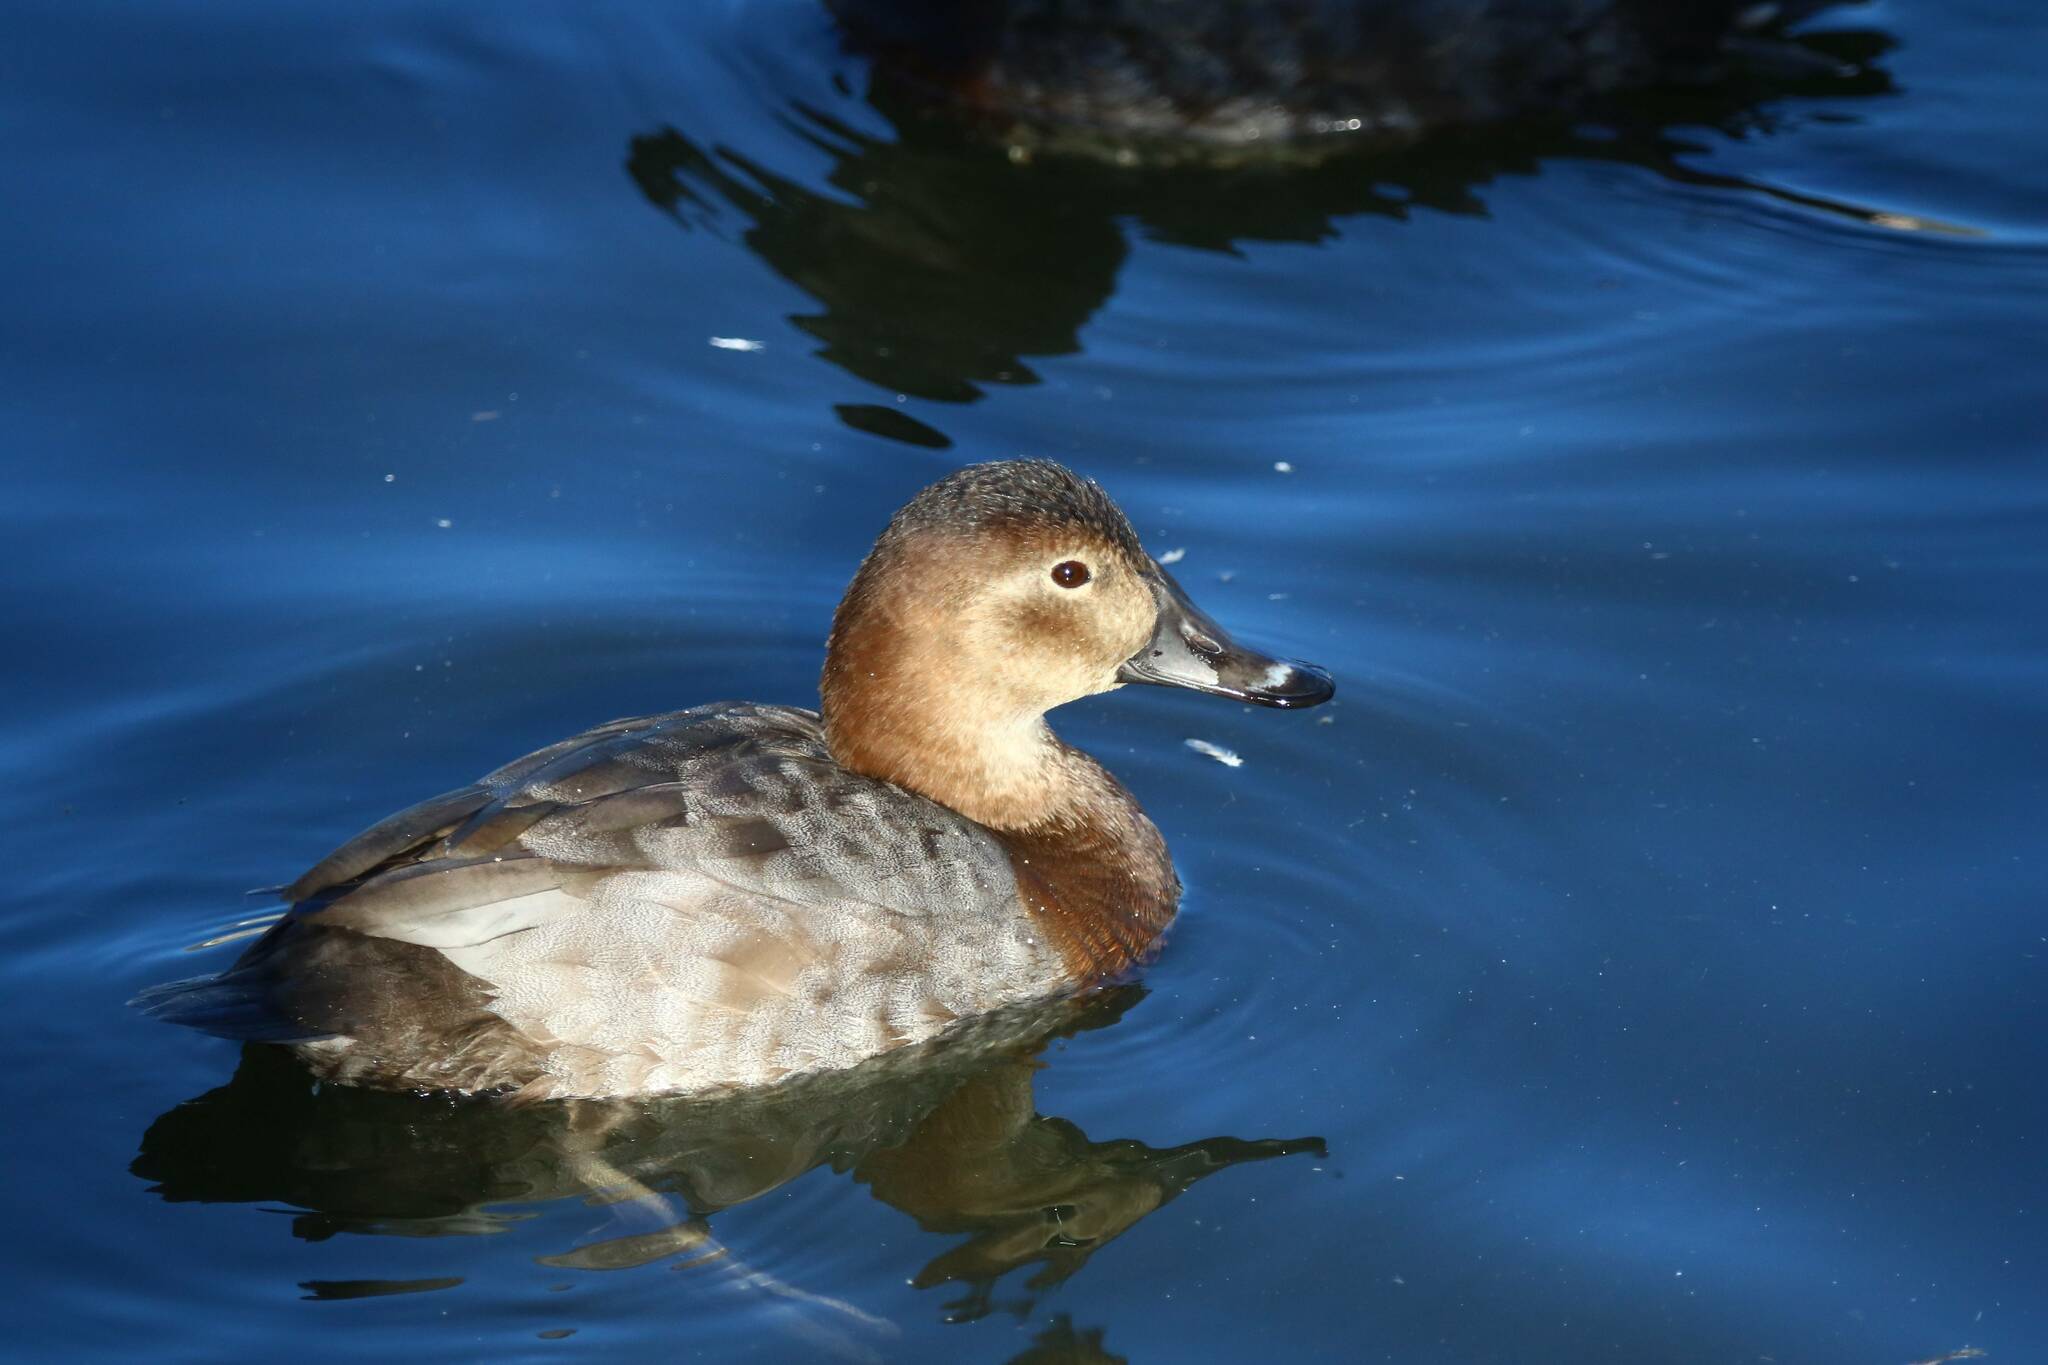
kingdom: Animalia
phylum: Chordata
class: Aves
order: Anseriformes
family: Anatidae
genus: Aythya
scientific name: Aythya ferina
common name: Common pochard
